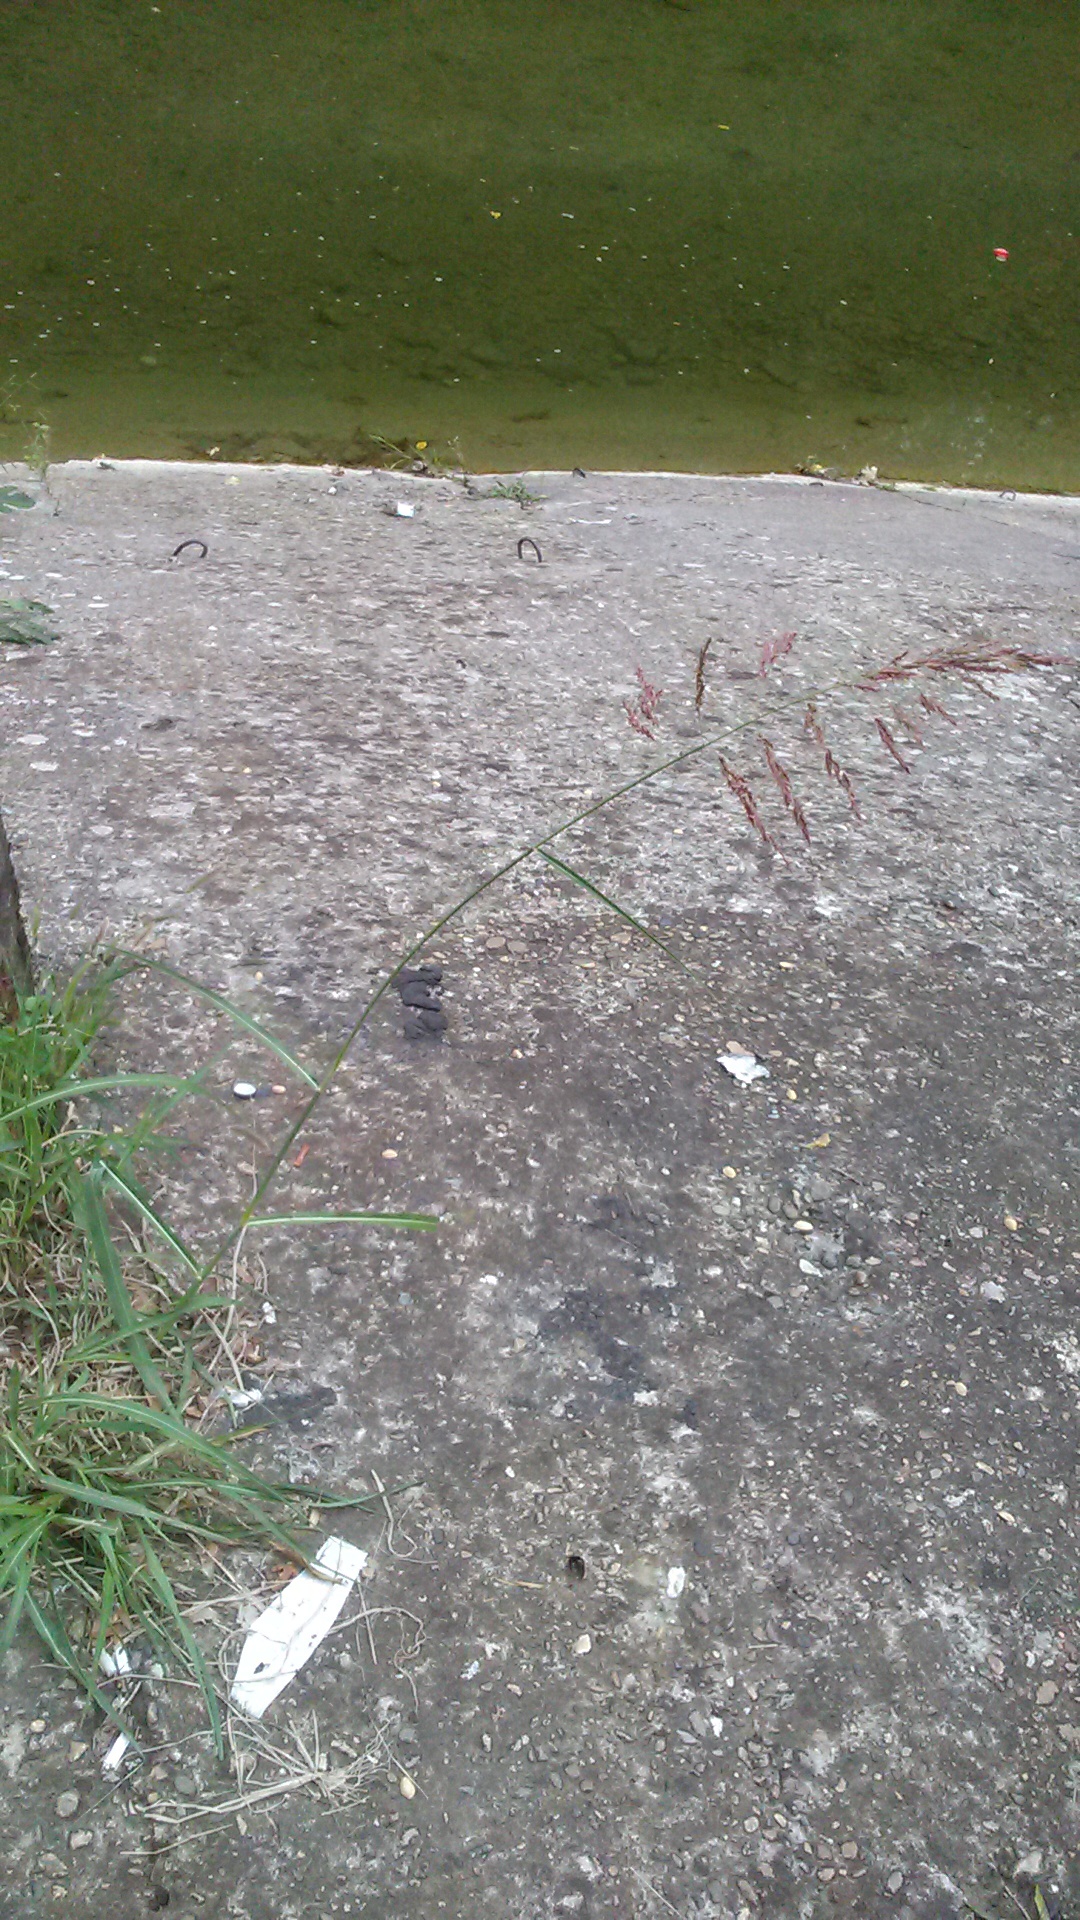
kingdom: Plantae
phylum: Tracheophyta
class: Liliopsida
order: Poales
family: Poaceae
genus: Sorghum
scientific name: Sorghum halepense
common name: Johnson-grass
